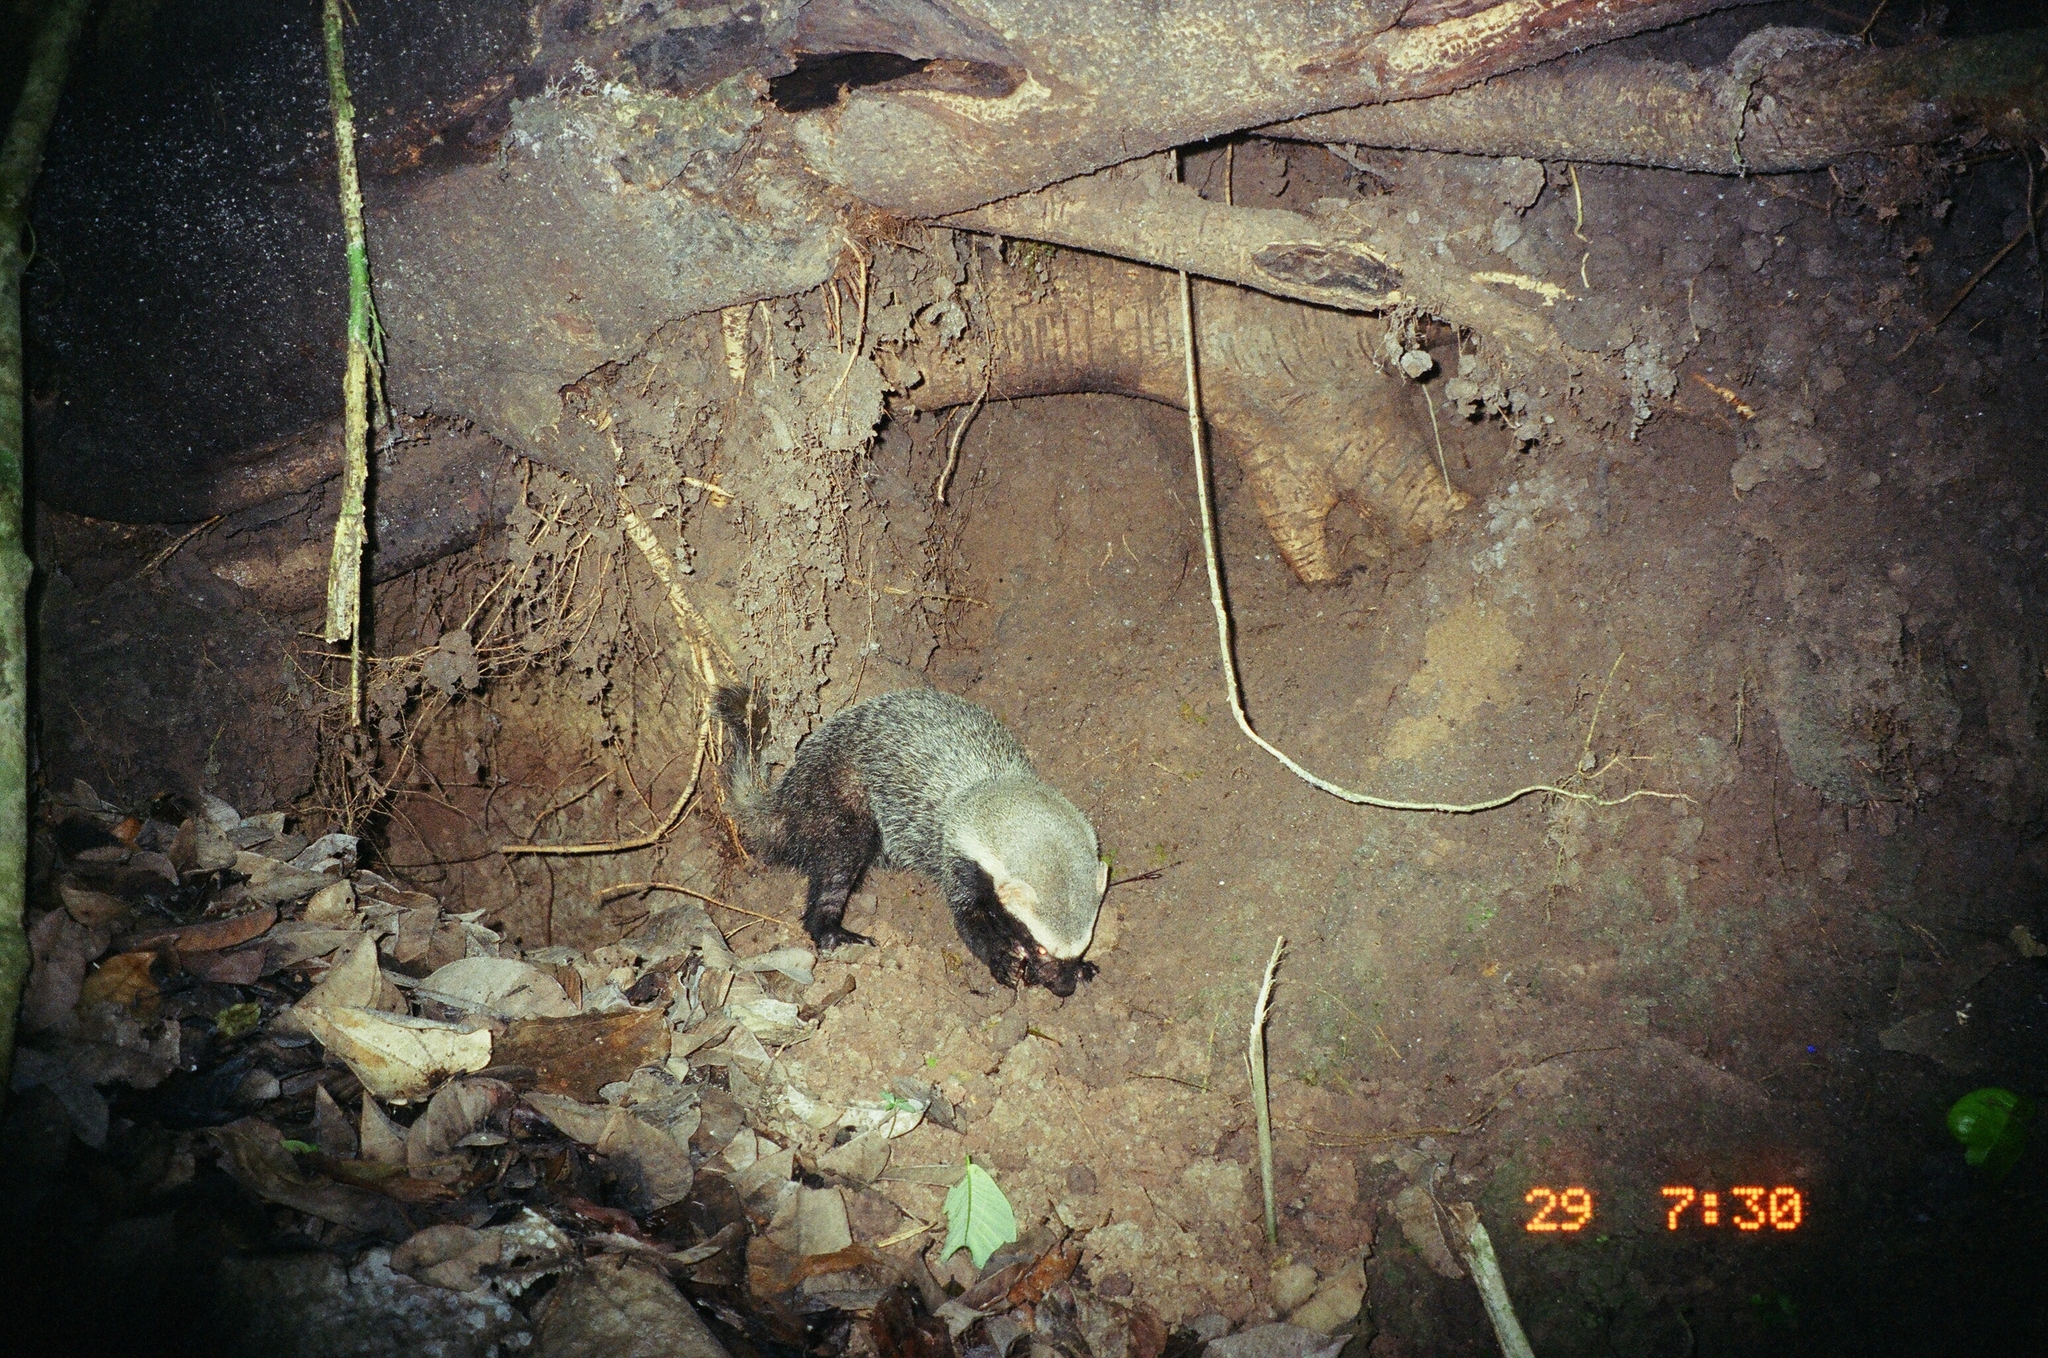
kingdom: Animalia
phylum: Chordata
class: Mammalia
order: Carnivora
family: Mustelidae
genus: Galictis
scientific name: Galictis vittata
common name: Greater grison
